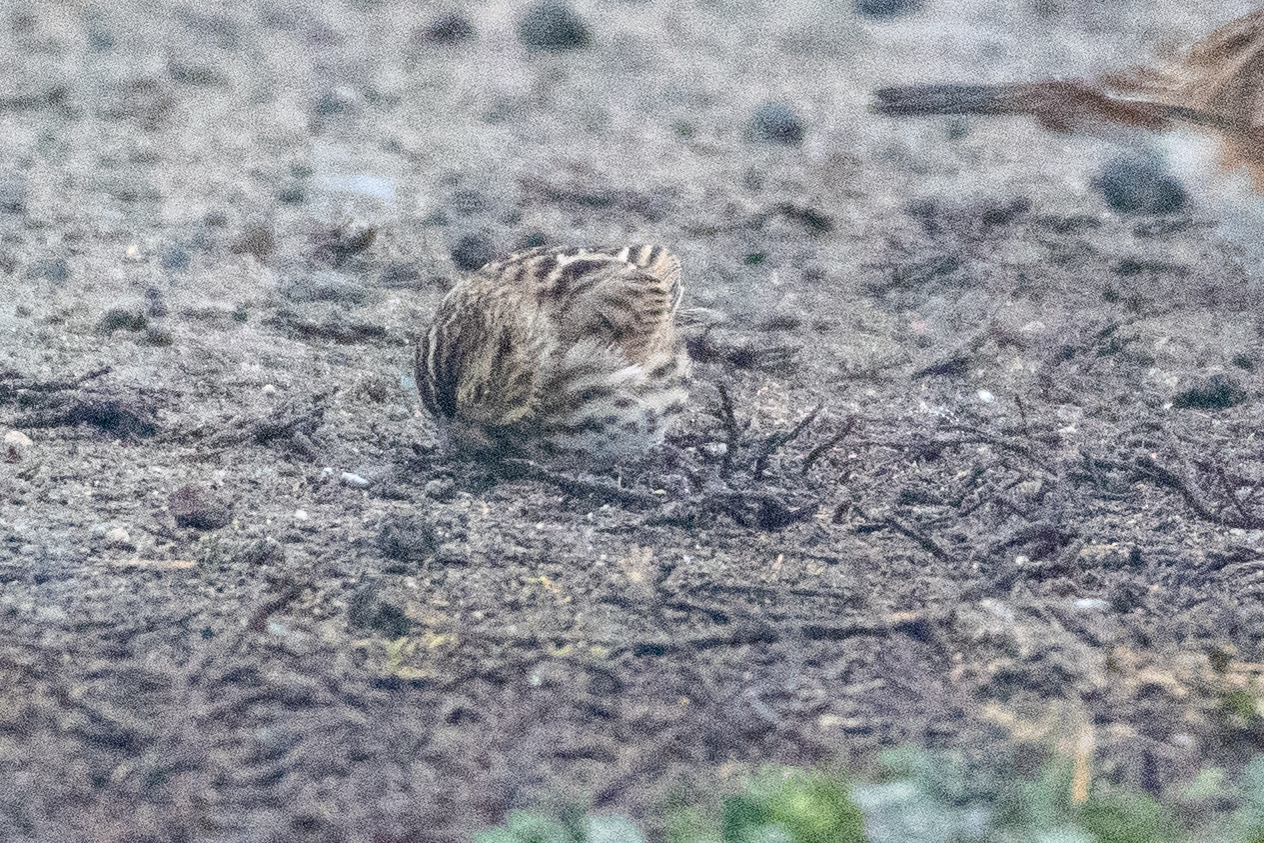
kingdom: Animalia
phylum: Chordata
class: Aves
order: Passeriformes
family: Passerellidae
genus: Passerculus
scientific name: Passerculus sandwichensis
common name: Savannah sparrow
